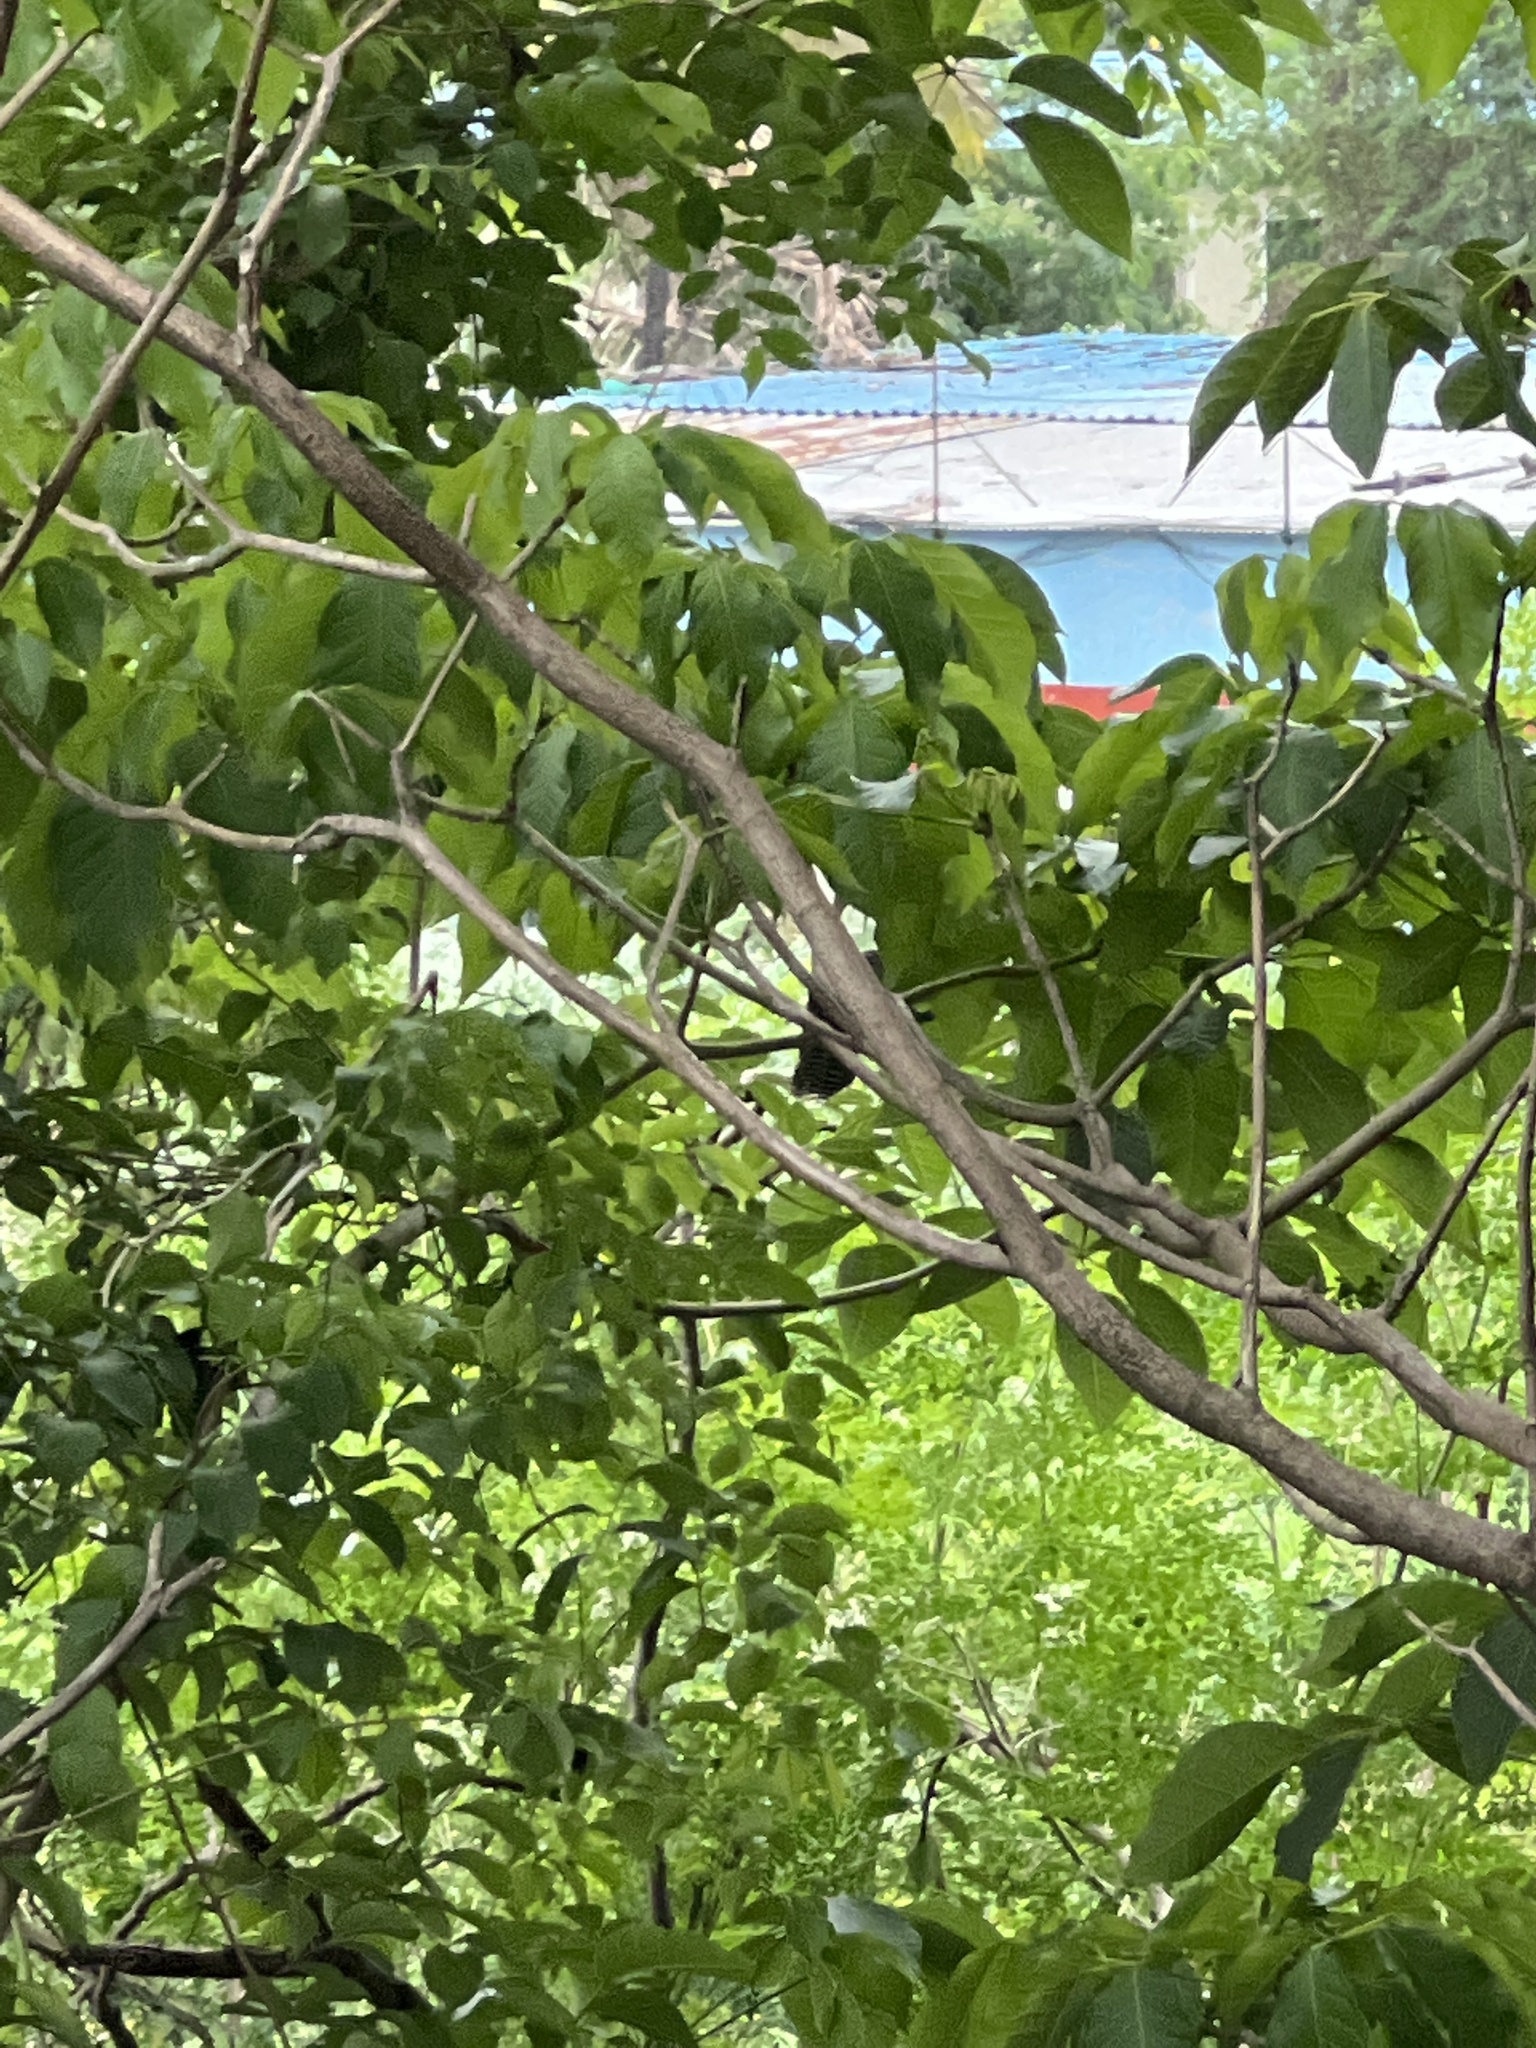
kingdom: Animalia
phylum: Chordata
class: Aves
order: Falconiformes
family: Falconidae
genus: Falco
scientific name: Falco peregrinus
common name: Peregrine falcon
